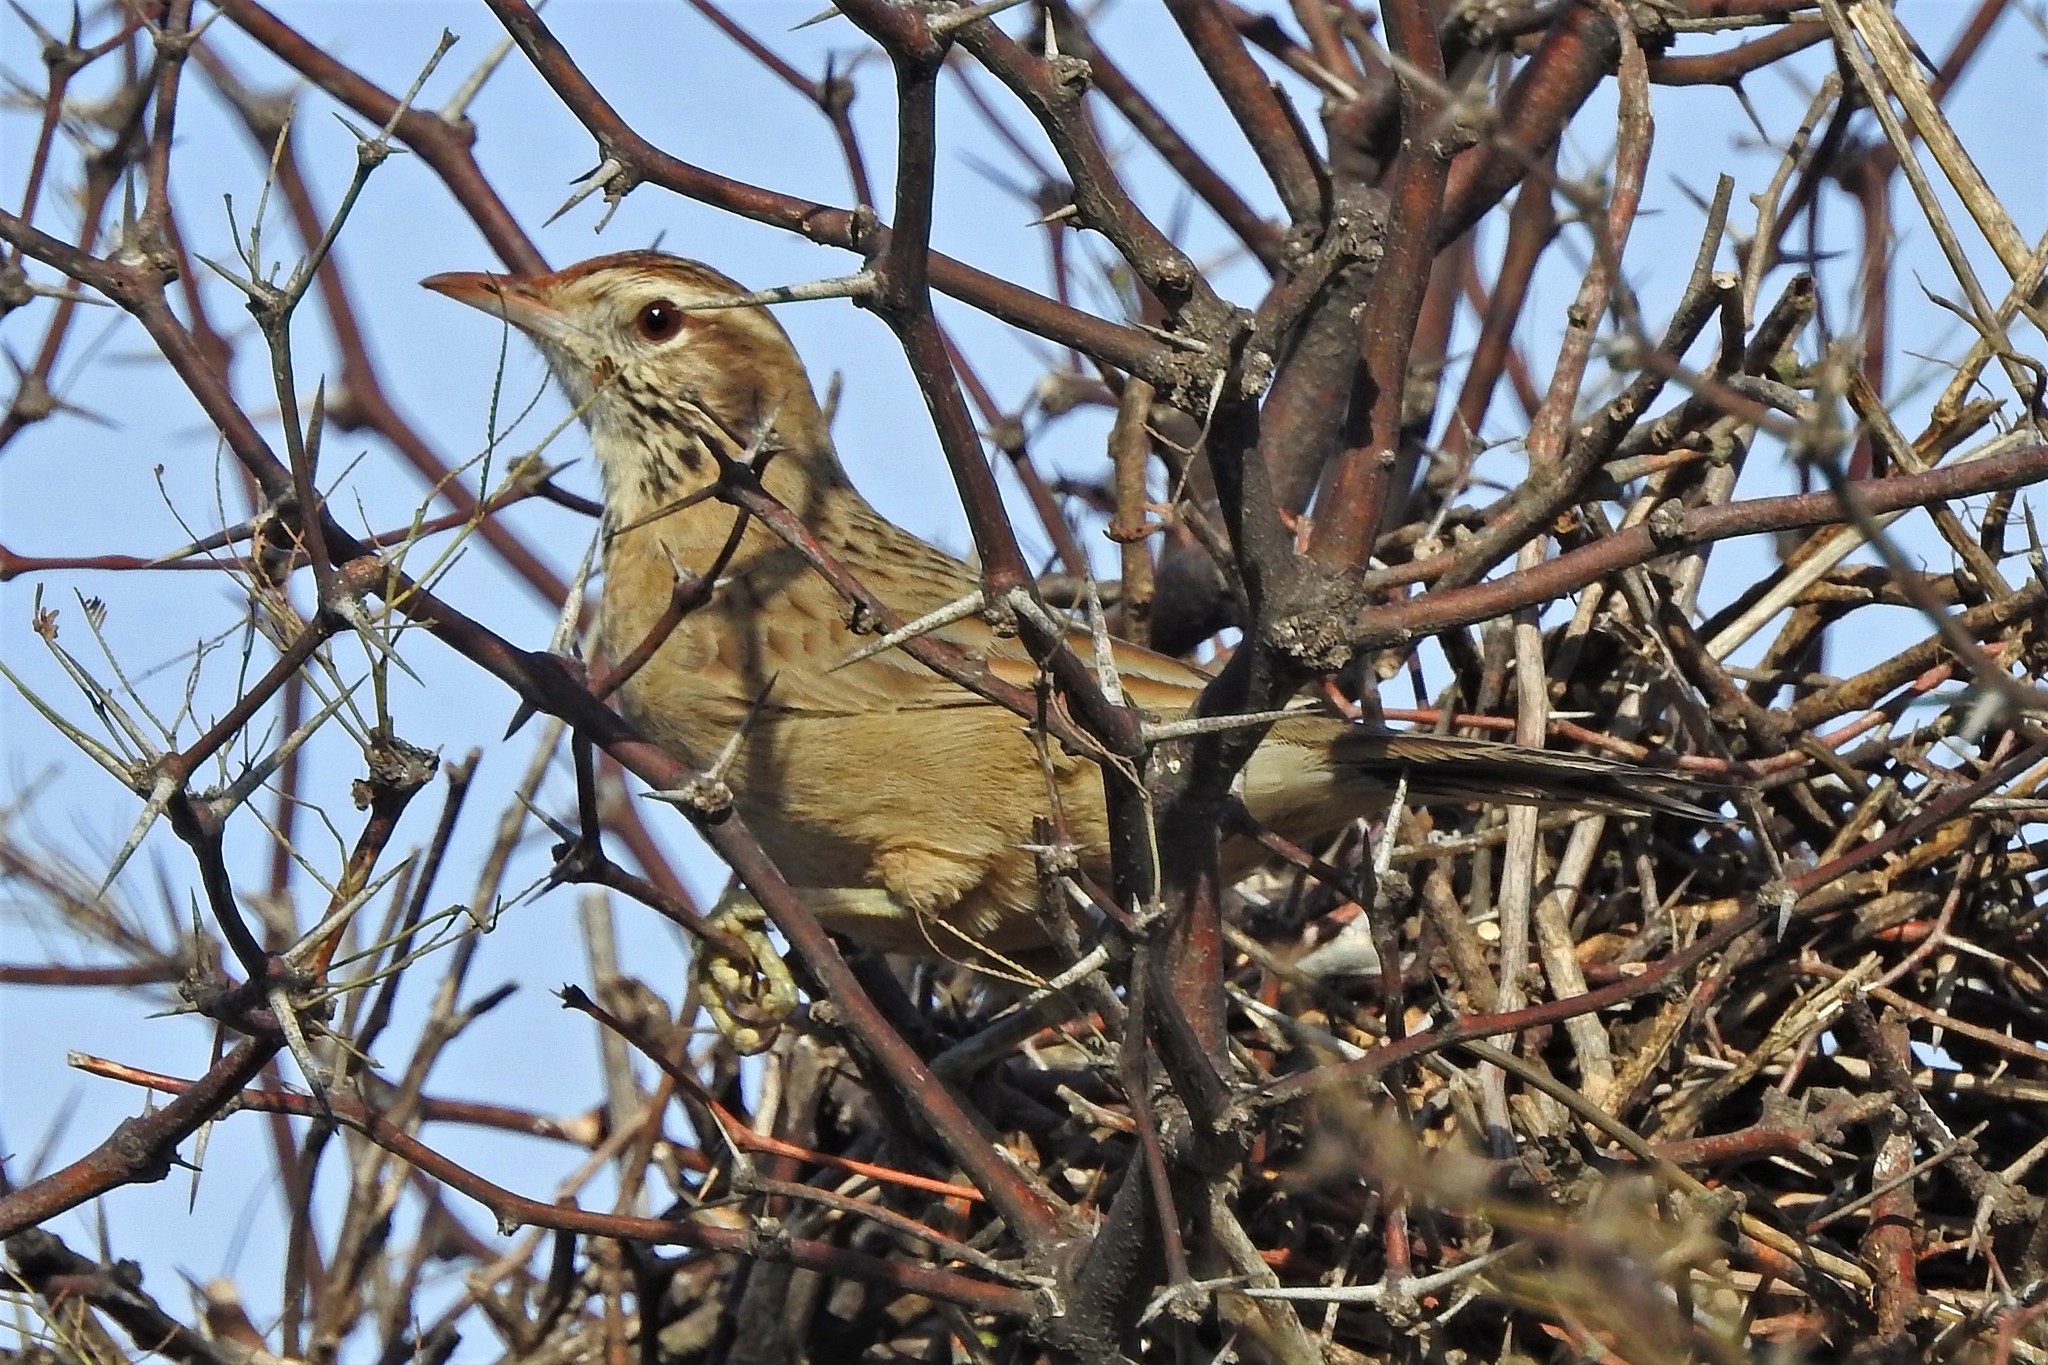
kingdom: Animalia
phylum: Chordata
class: Aves
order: Passeriformes
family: Furnariidae
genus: Anumbius
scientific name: Anumbius annumbi
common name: Firewood-gatherer
